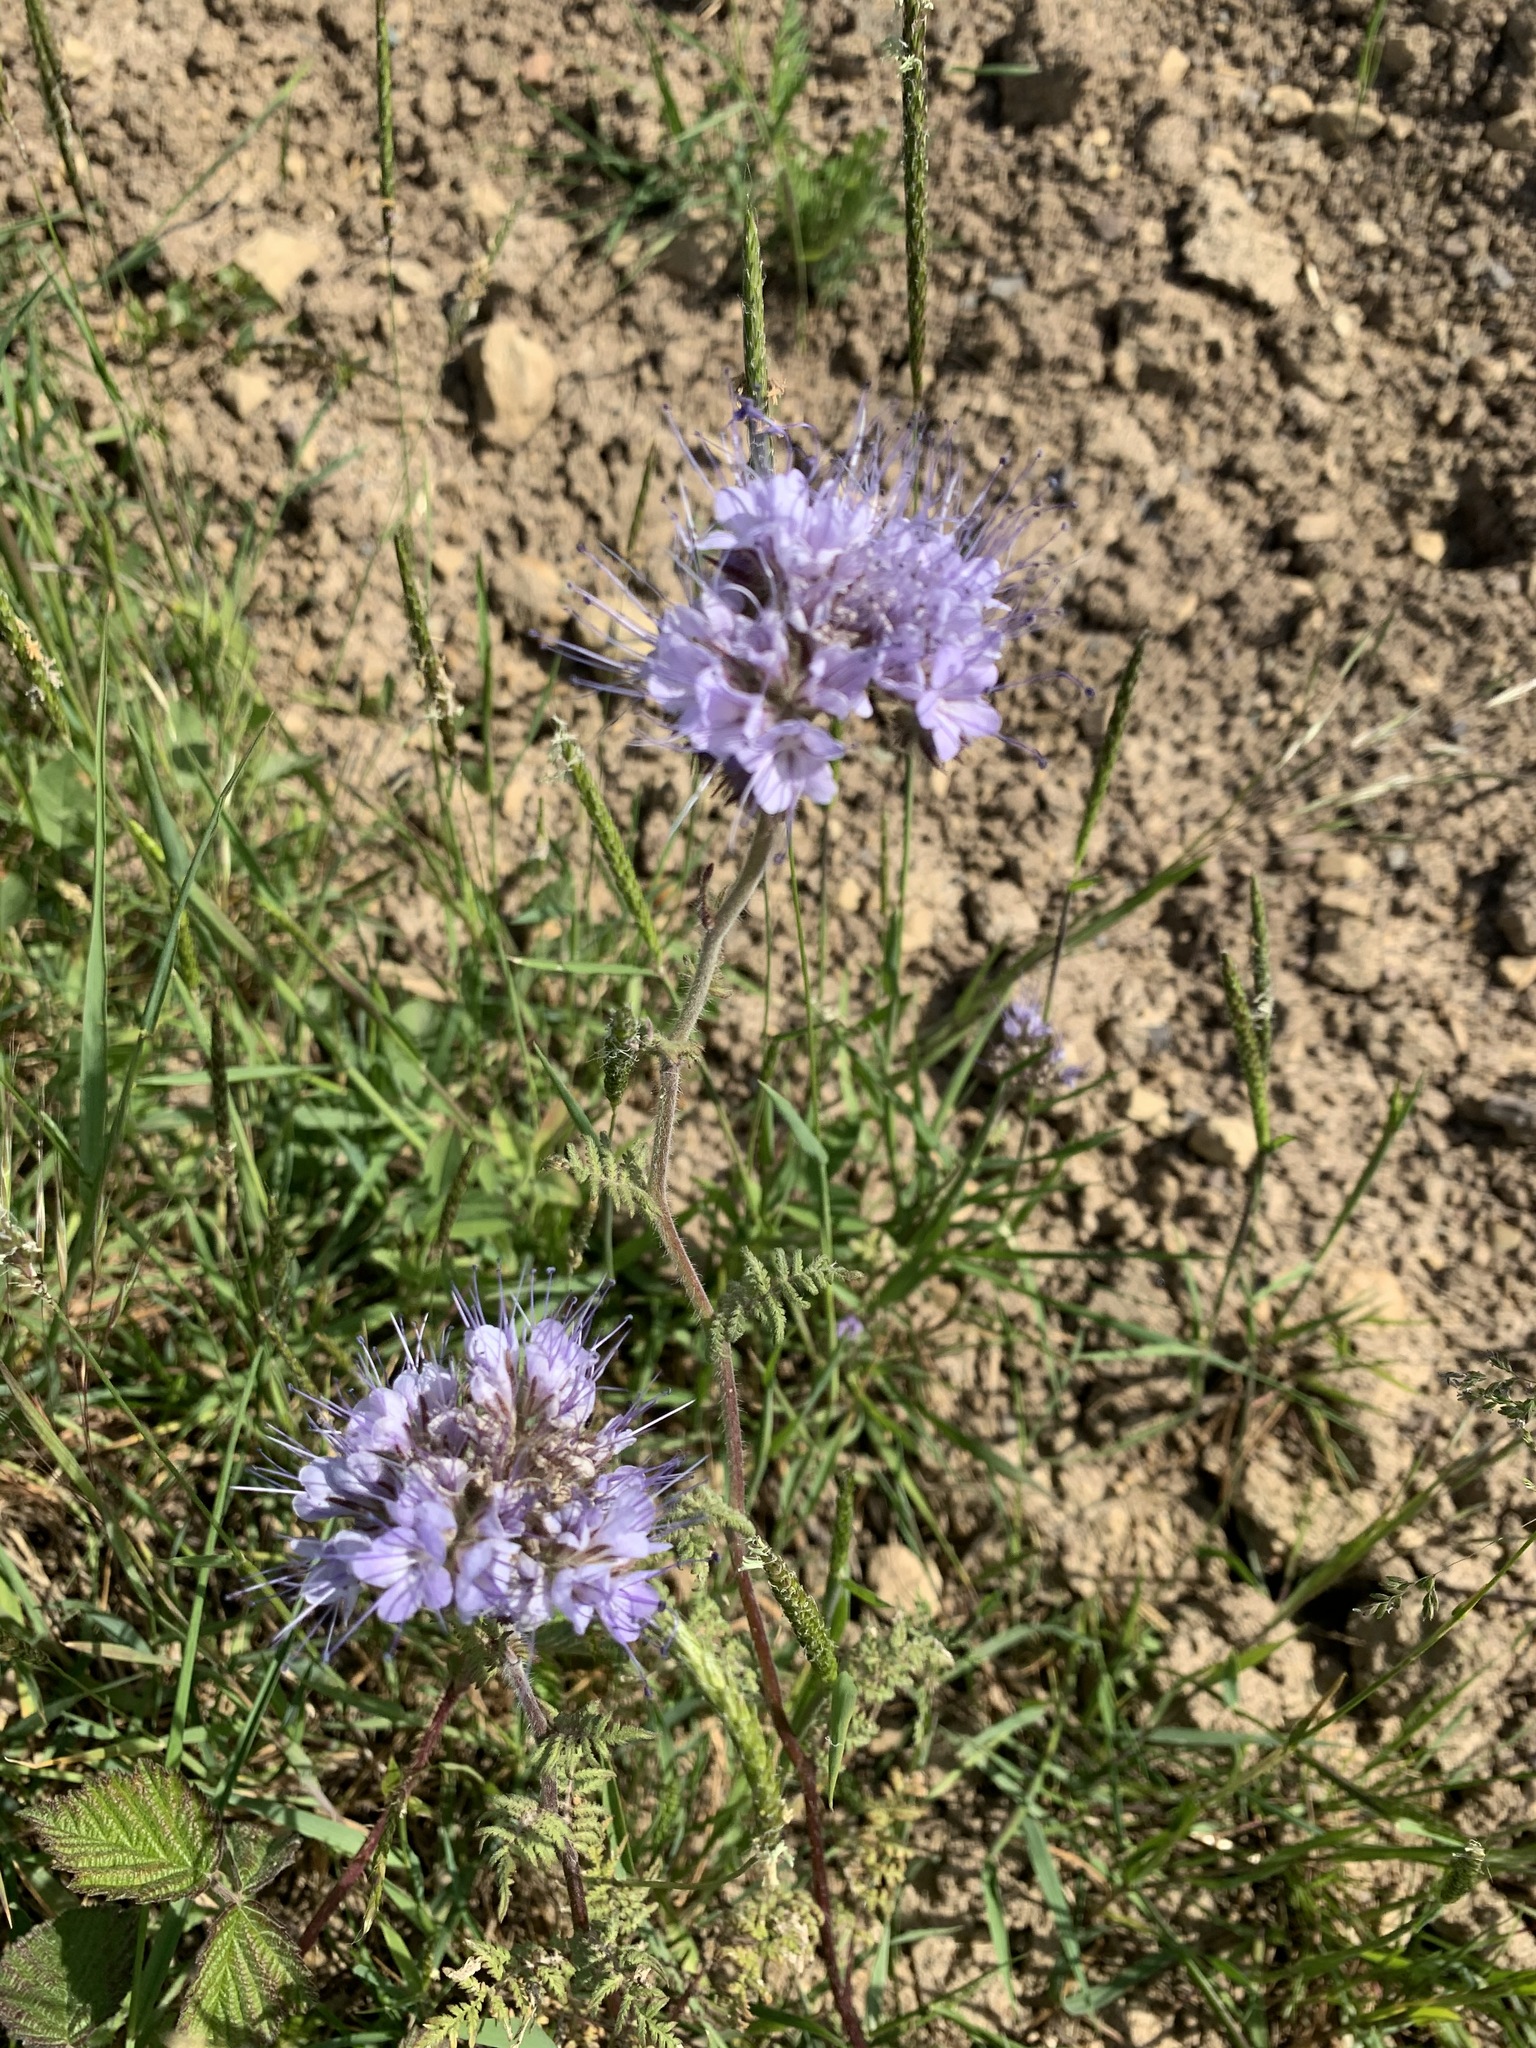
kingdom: Plantae
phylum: Tracheophyta
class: Magnoliopsida
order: Boraginales
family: Hydrophyllaceae
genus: Phacelia
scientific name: Phacelia tanacetifolia
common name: Phacelia
